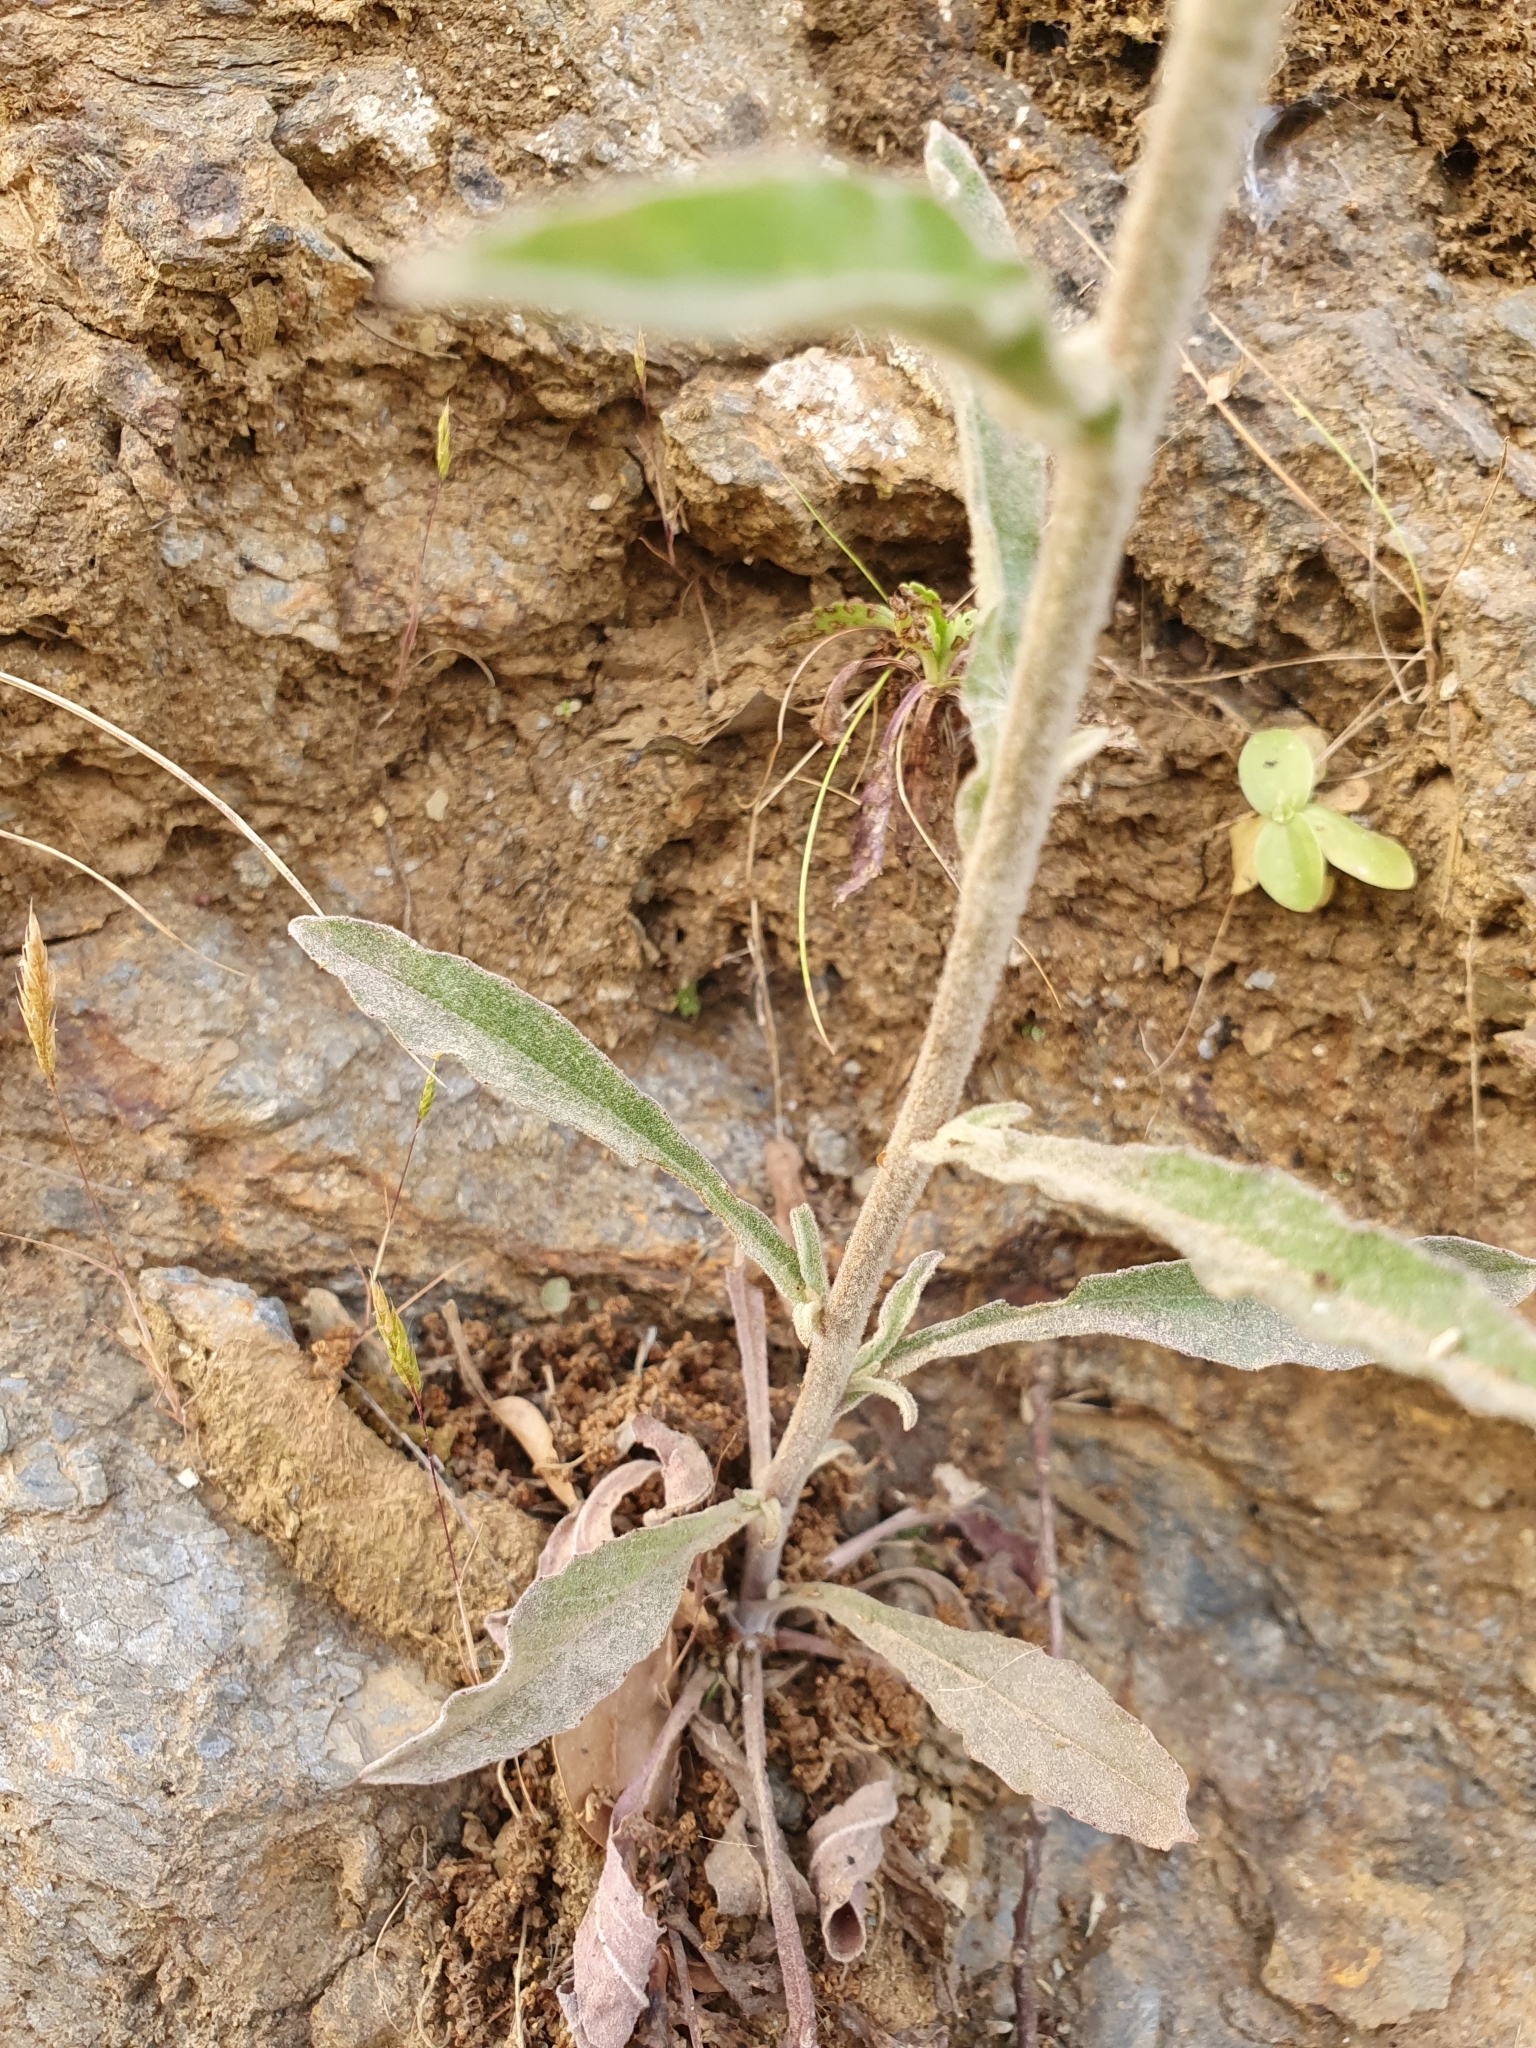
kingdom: Plantae
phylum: Tracheophyta
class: Magnoliopsida
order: Asterales
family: Asteraceae
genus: Andryala
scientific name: Andryala integrifolia
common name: Common andryala
